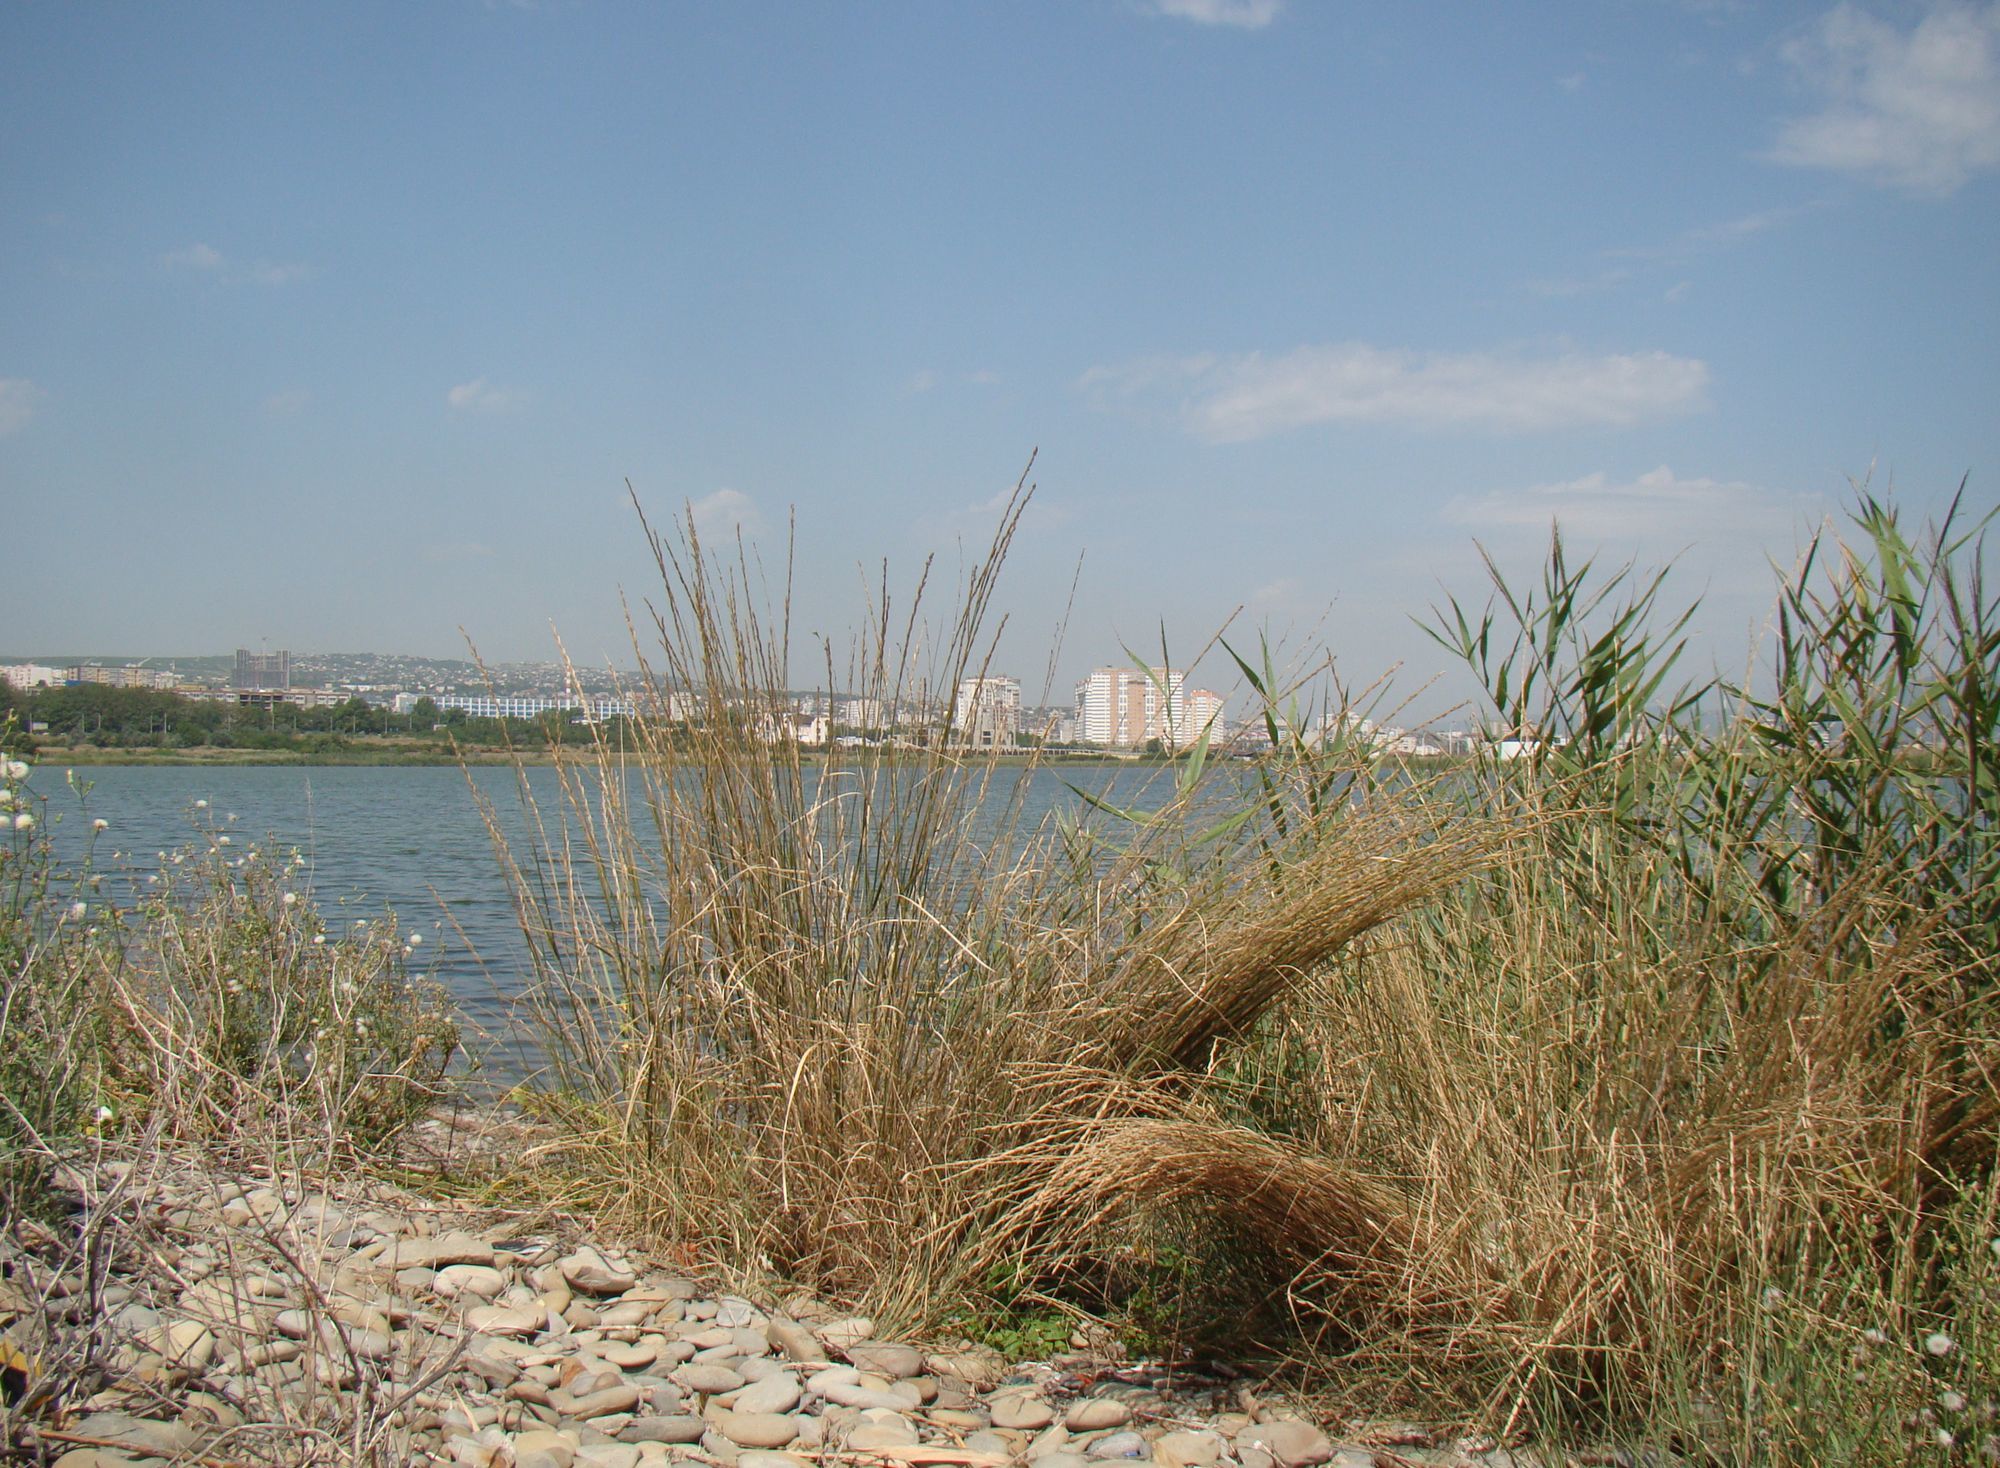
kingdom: Plantae
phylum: Tracheophyta
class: Liliopsida
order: Poales
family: Poaceae
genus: Thinopyrum
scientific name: Thinopyrum elongatum
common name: Tall wheatgrass
